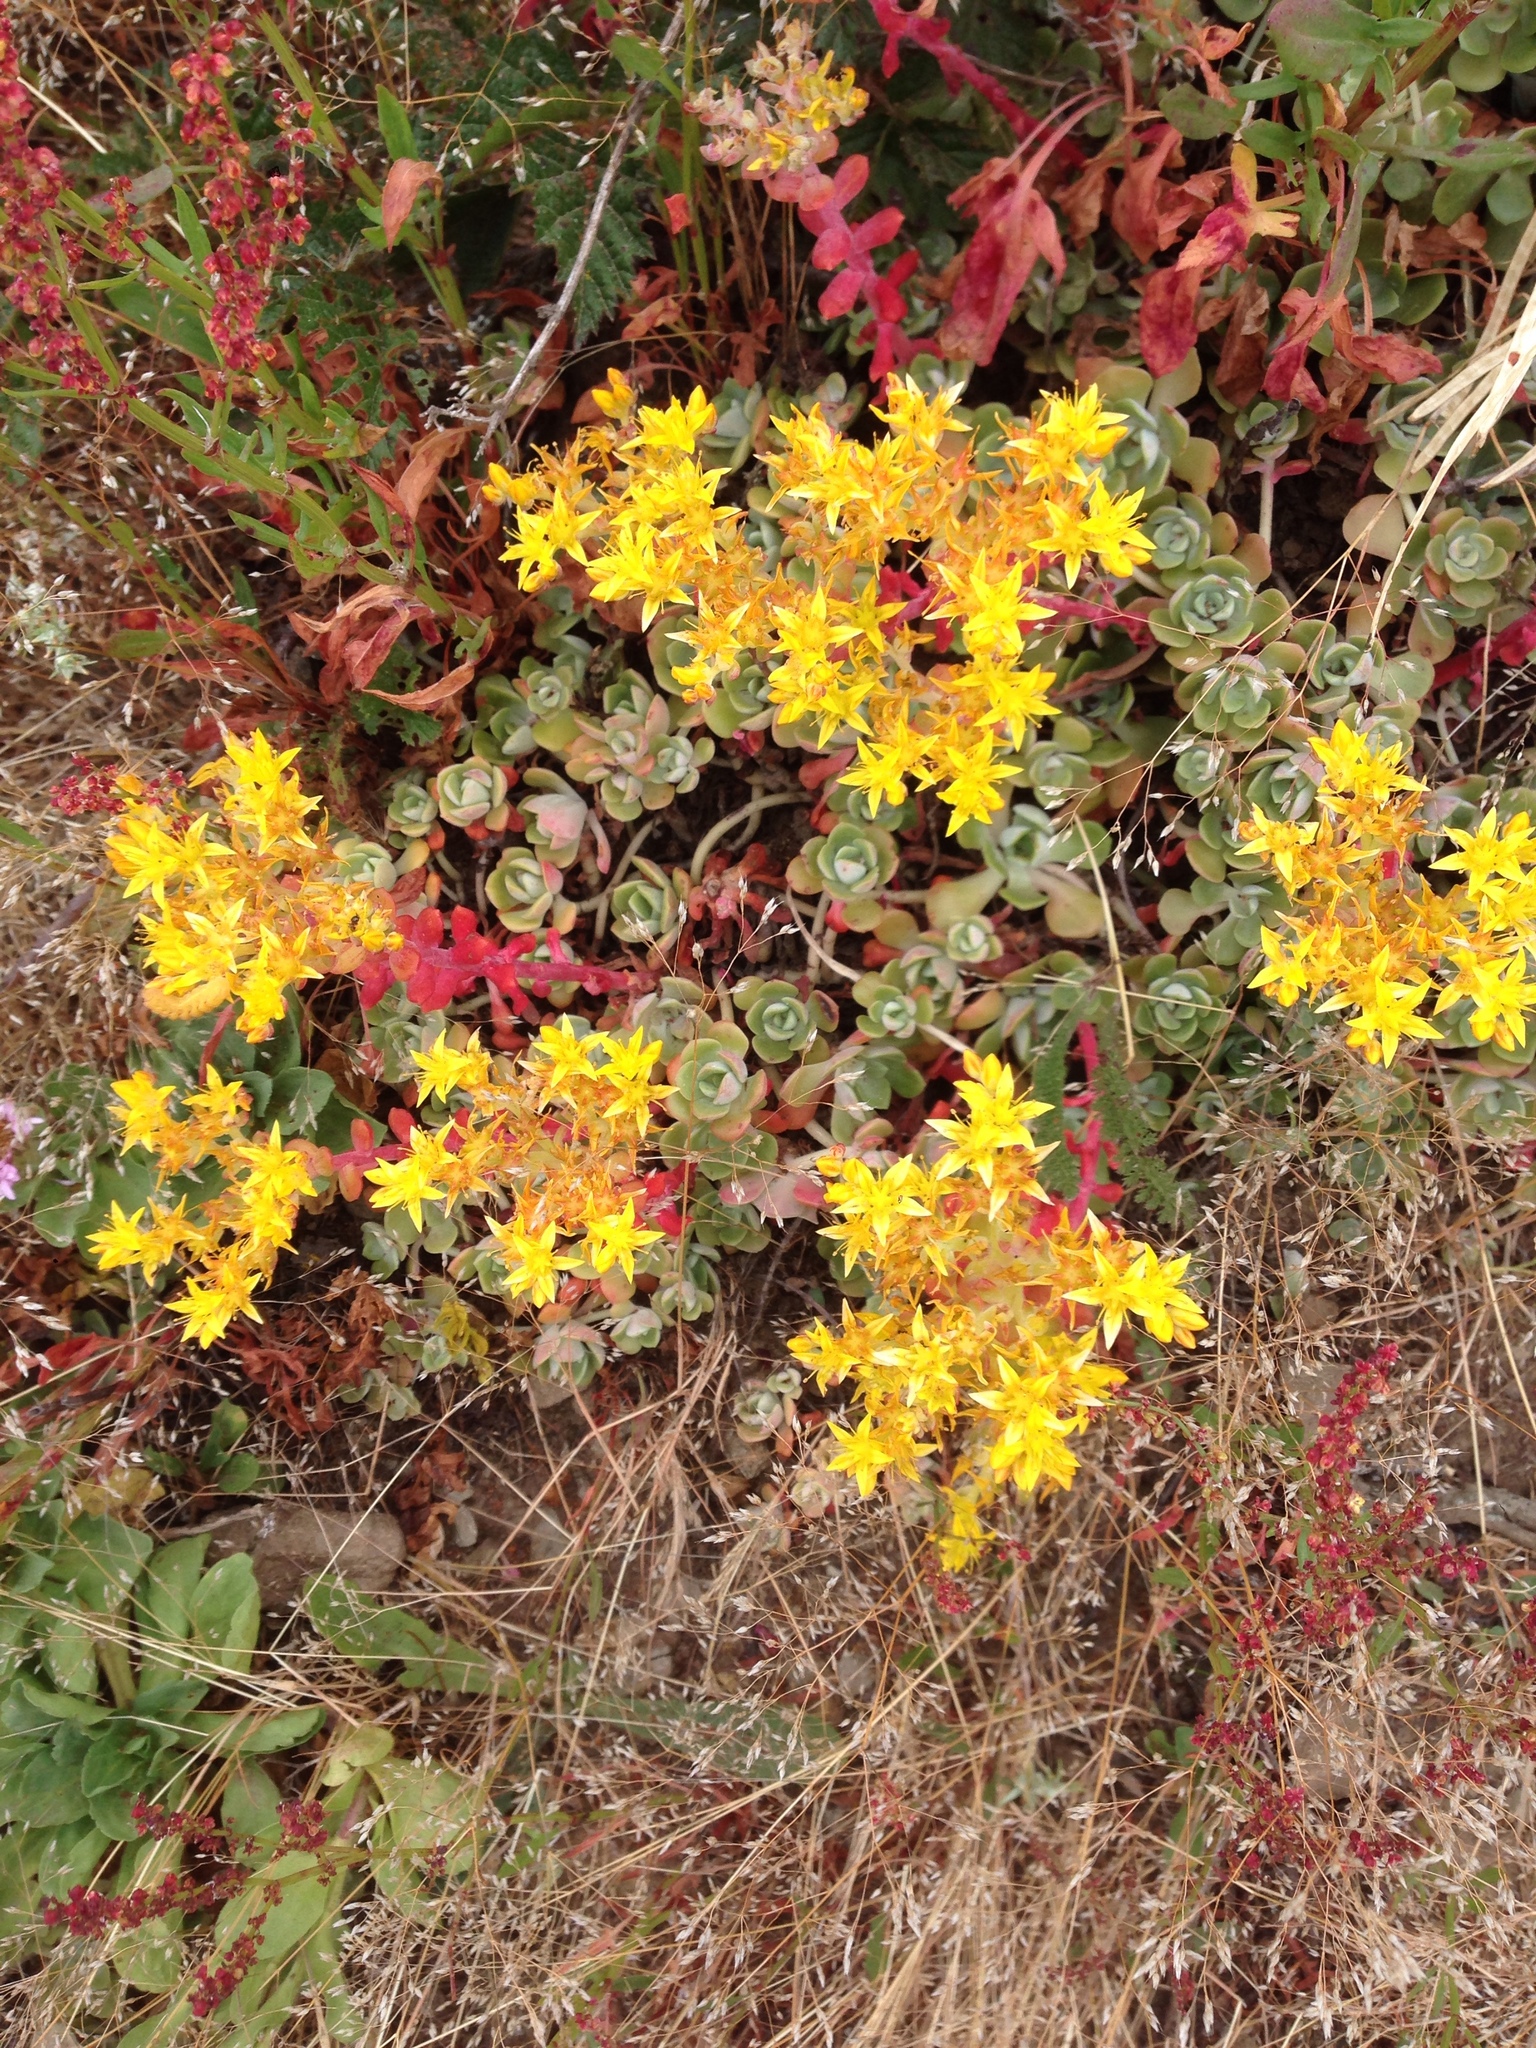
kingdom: Plantae
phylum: Tracheophyta
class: Magnoliopsida
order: Saxifragales
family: Crassulaceae
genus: Sedum
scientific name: Sedum spathulifolium
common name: Colorado stonecrop
